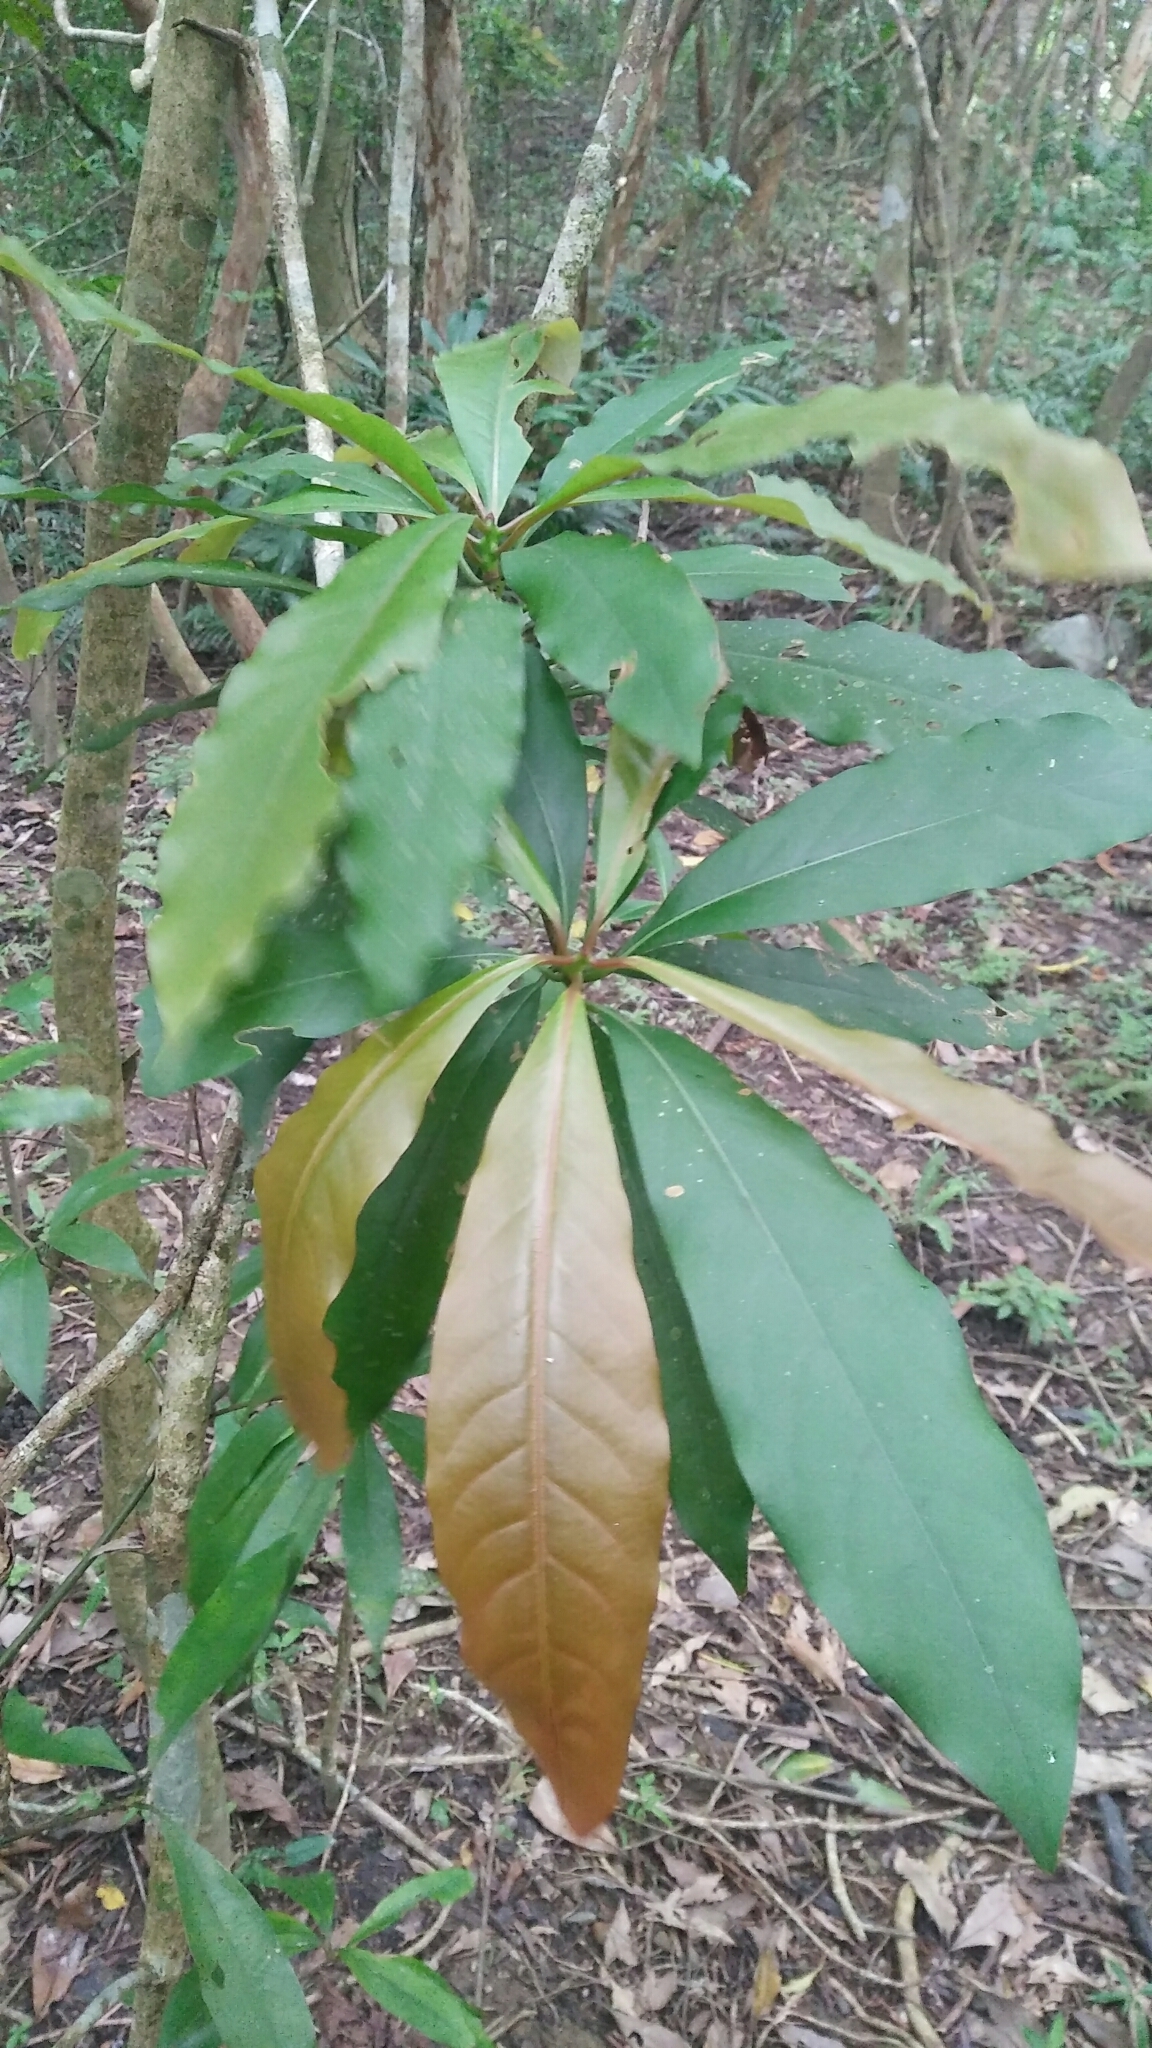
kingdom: Plantae
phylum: Tracheophyta
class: Magnoliopsida
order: Laurales
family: Lauraceae
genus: Machilus
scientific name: Machilus japonica
